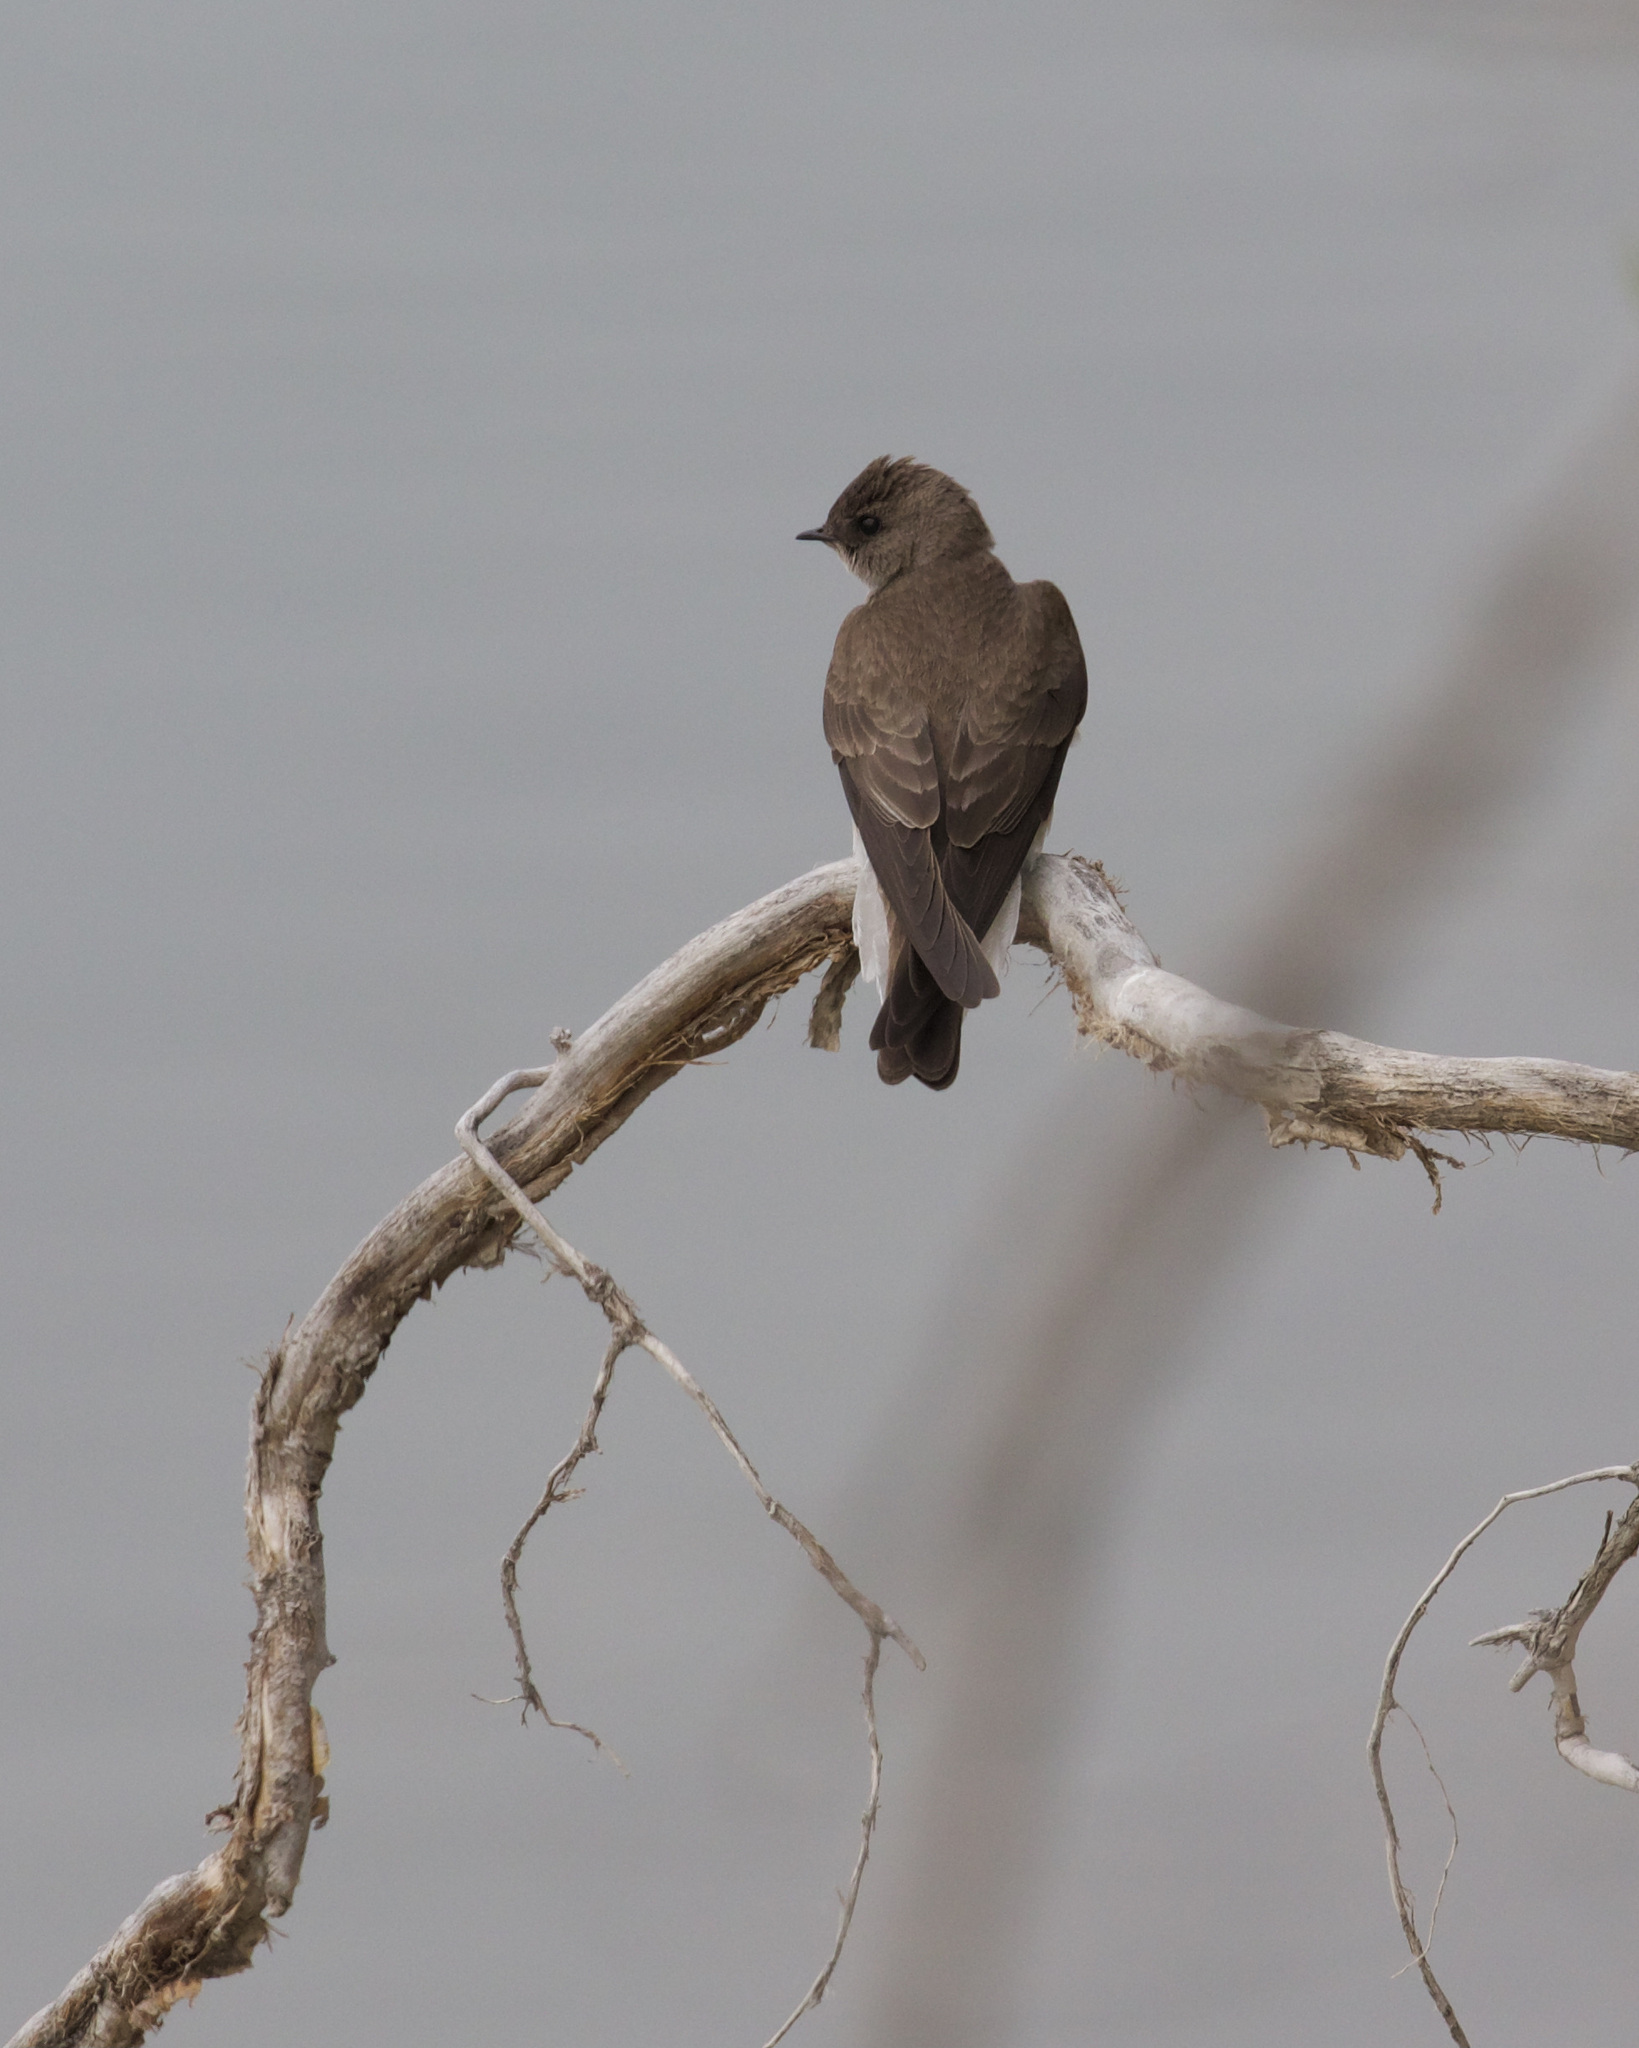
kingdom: Animalia
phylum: Chordata
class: Aves
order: Passeriformes
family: Hirundinidae
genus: Stelgidopteryx
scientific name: Stelgidopteryx serripennis
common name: Northern rough-winged swallow
